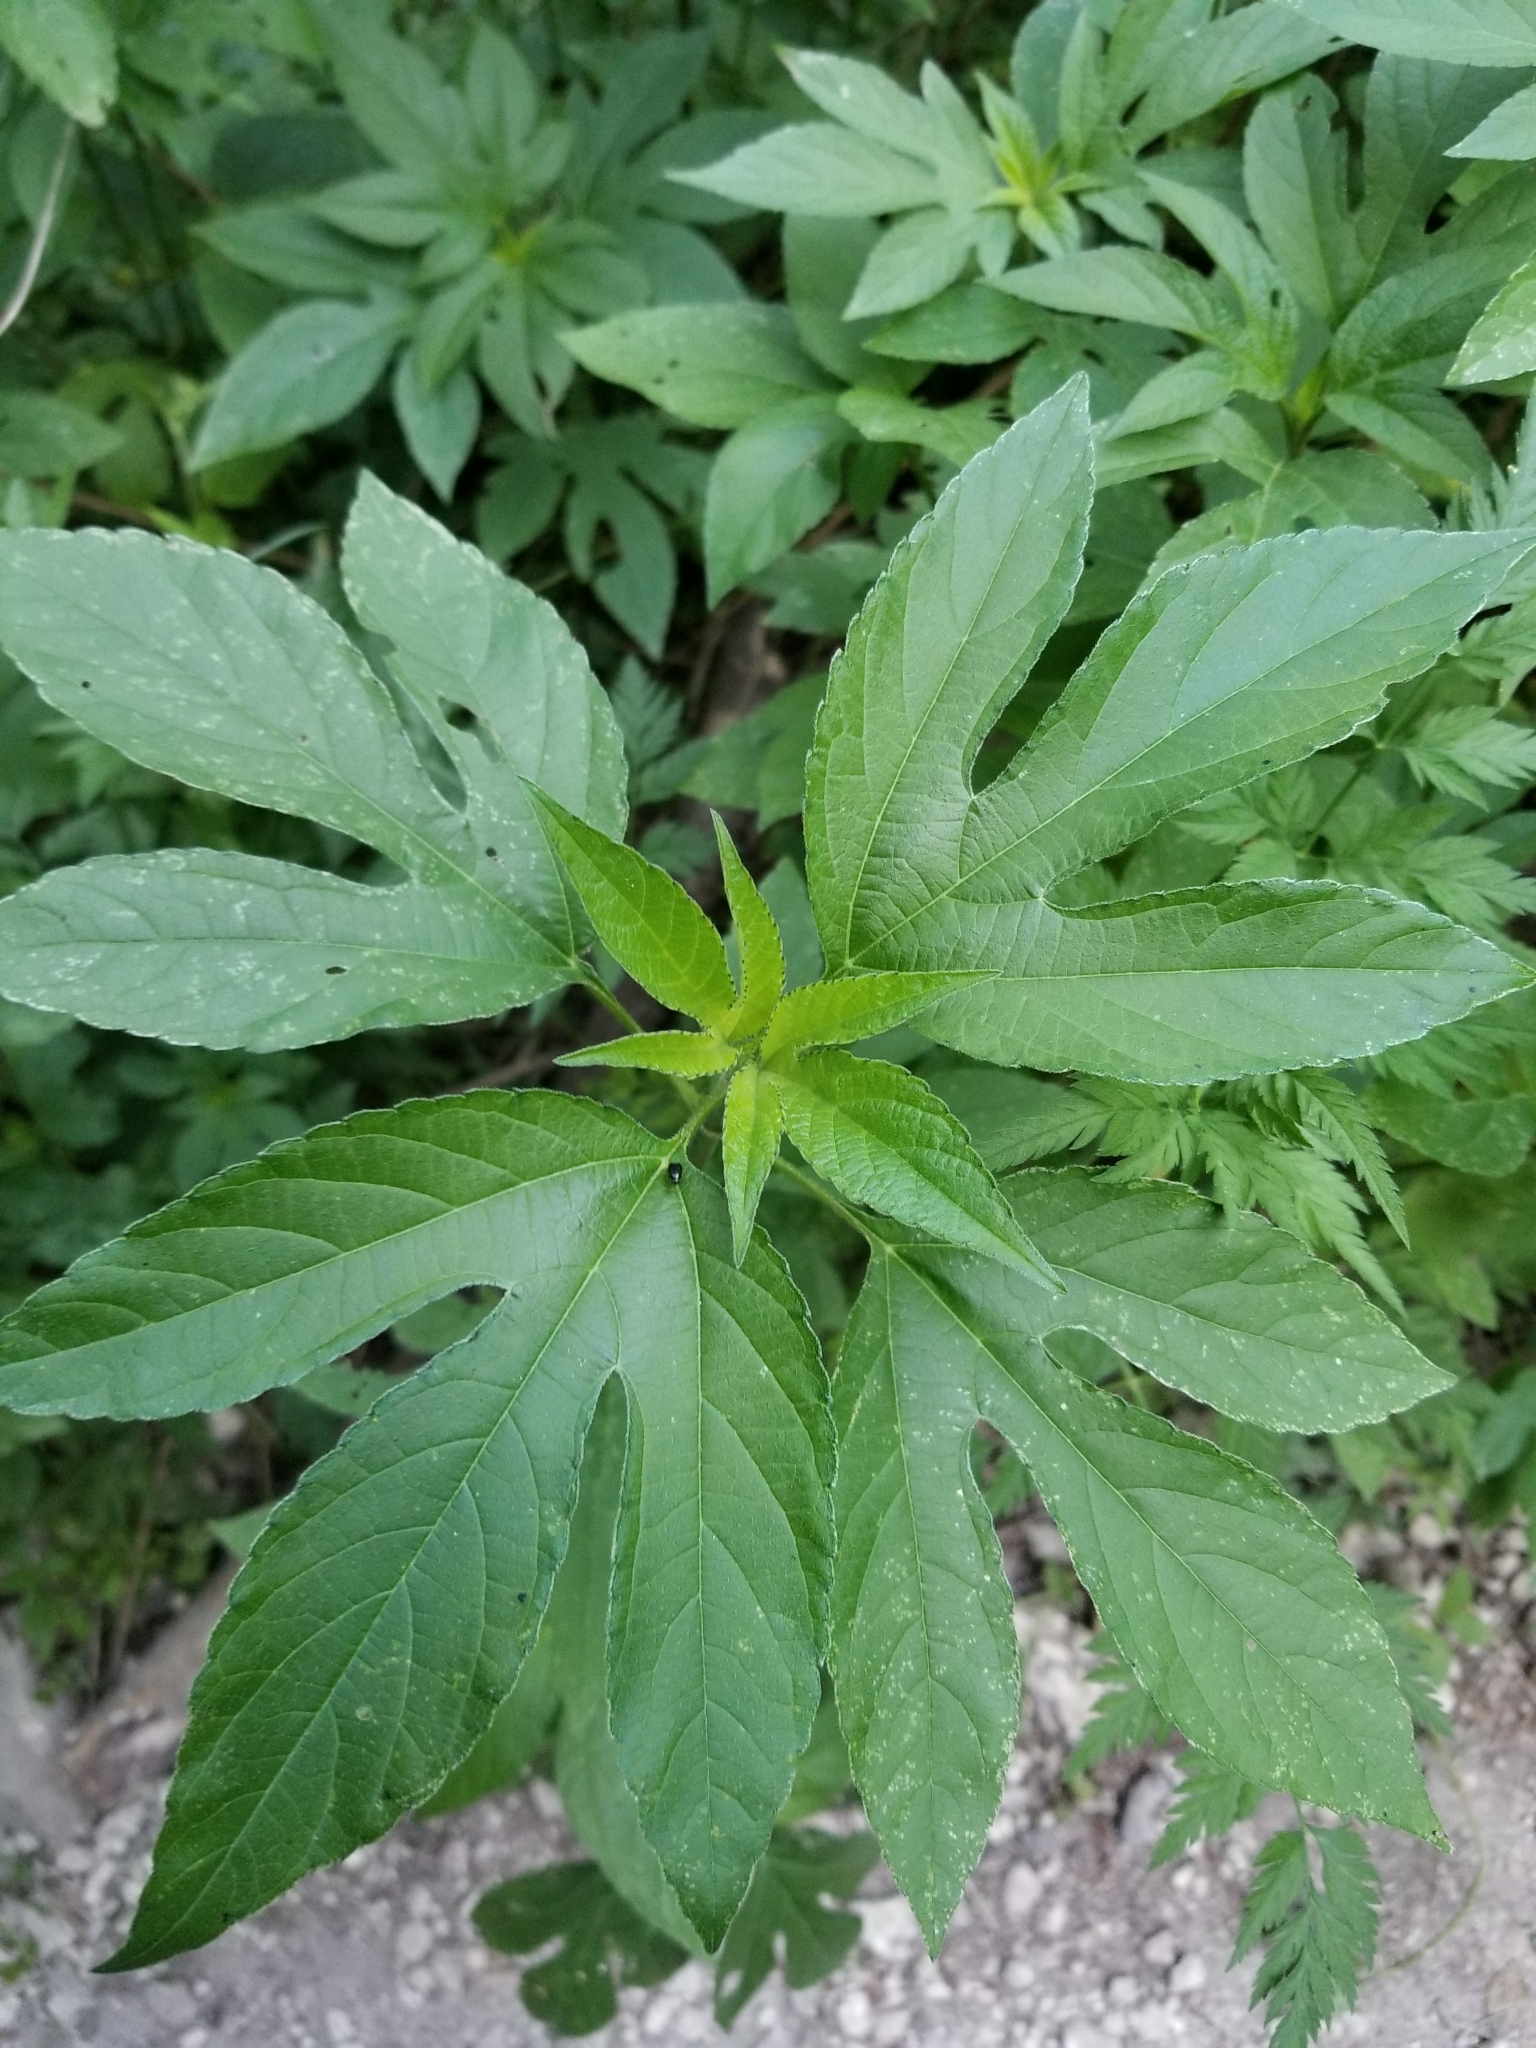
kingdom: Plantae
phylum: Tracheophyta
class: Magnoliopsida
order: Asterales
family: Asteraceae
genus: Ambrosia
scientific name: Ambrosia trifida
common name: Giant ragweed
